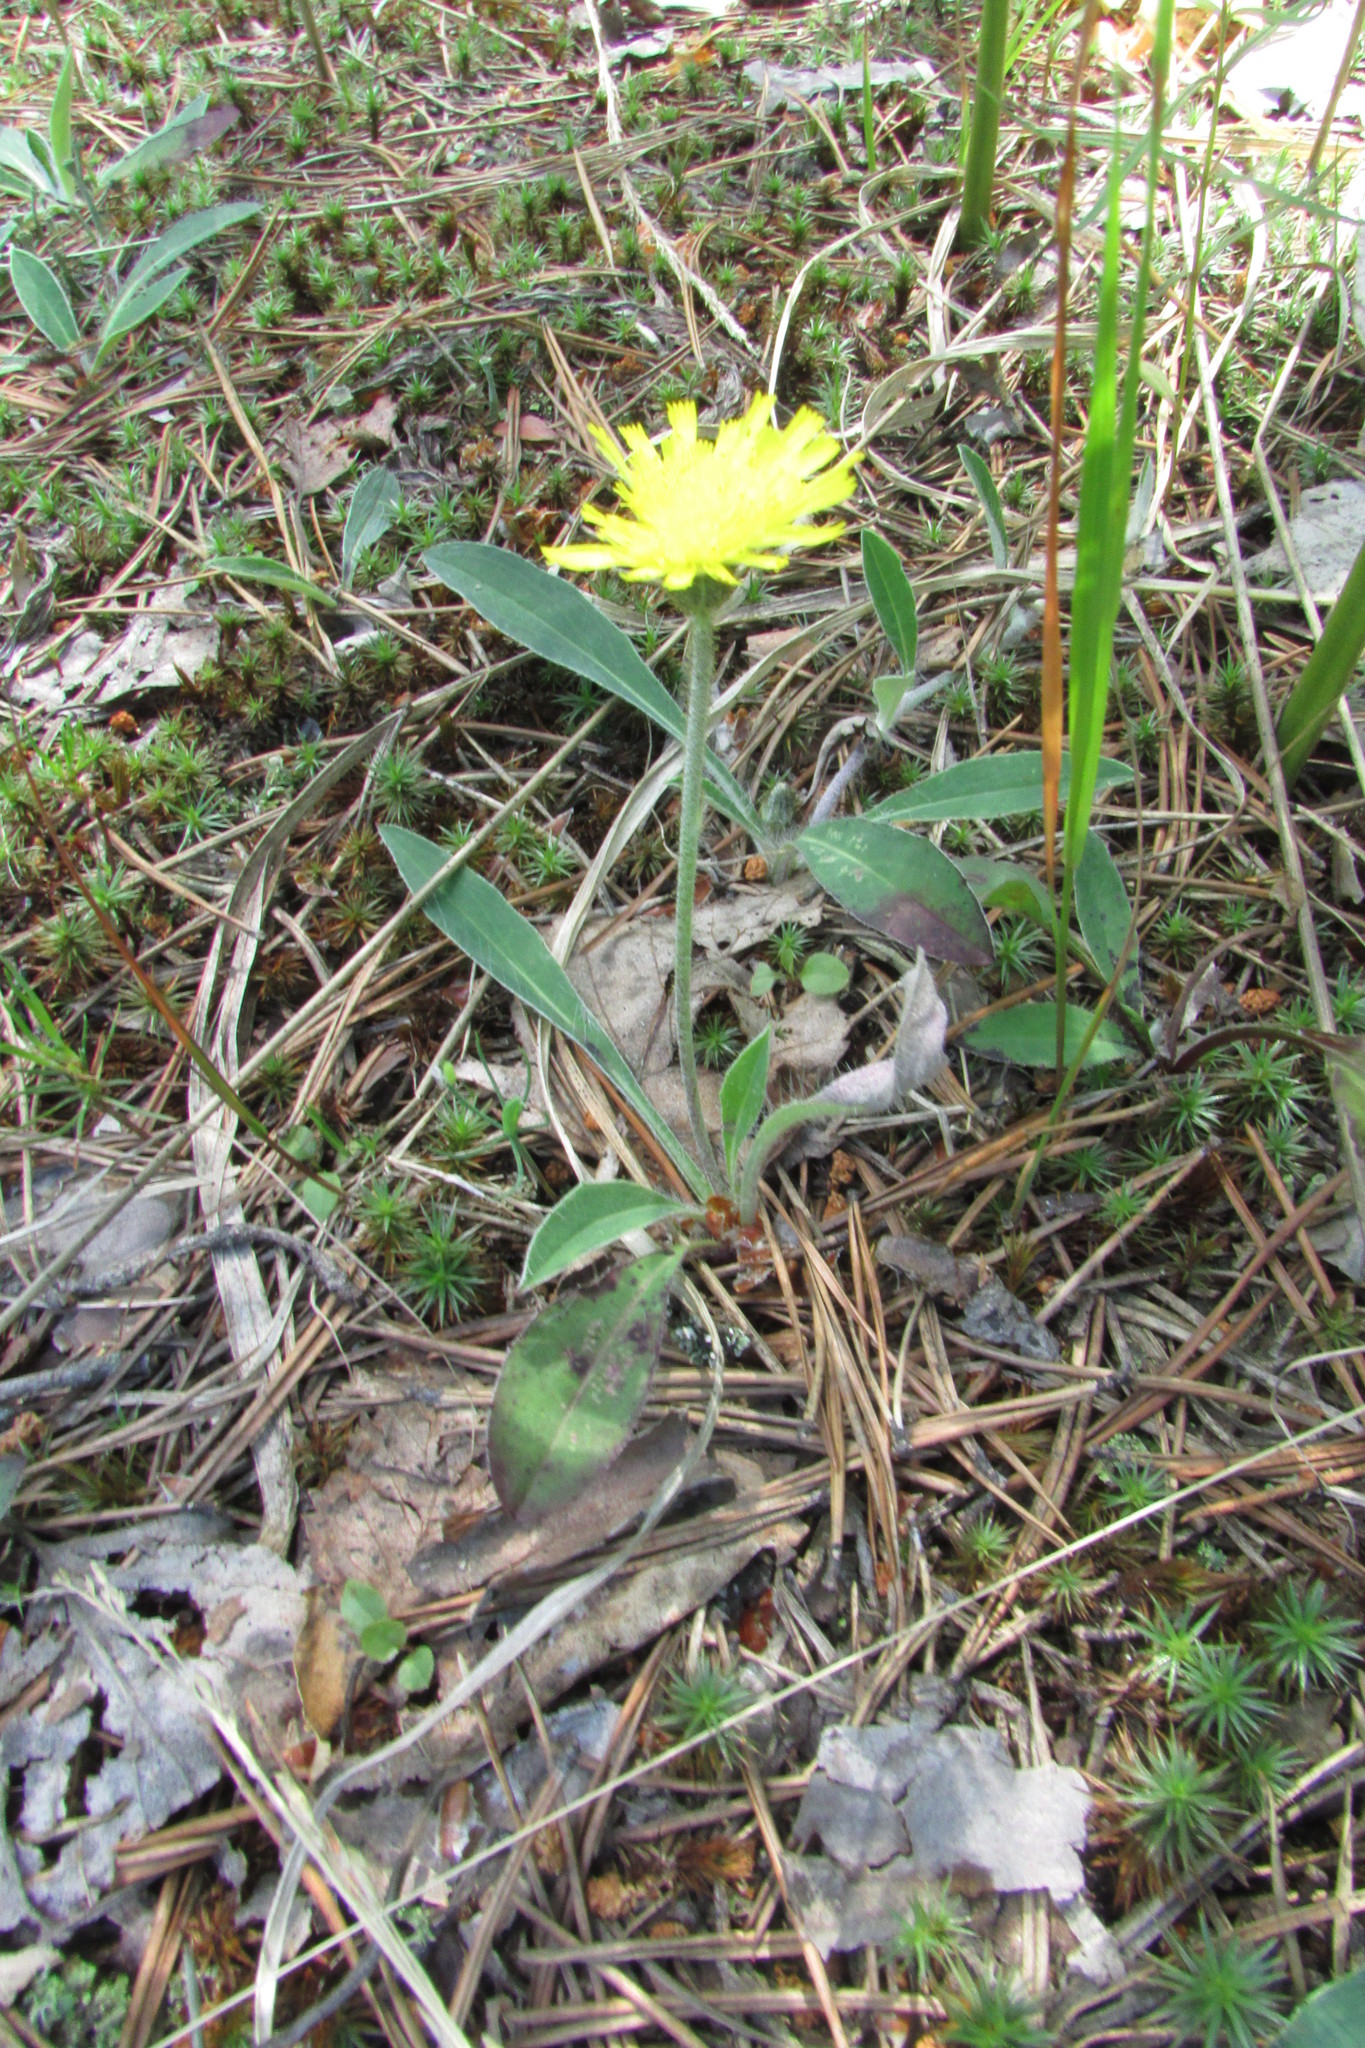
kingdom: Plantae
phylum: Tracheophyta
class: Magnoliopsida
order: Asterales
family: Asteraceae
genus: Pilosella
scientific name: Pilosella officinarum
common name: Mouse-ear hawkweed
